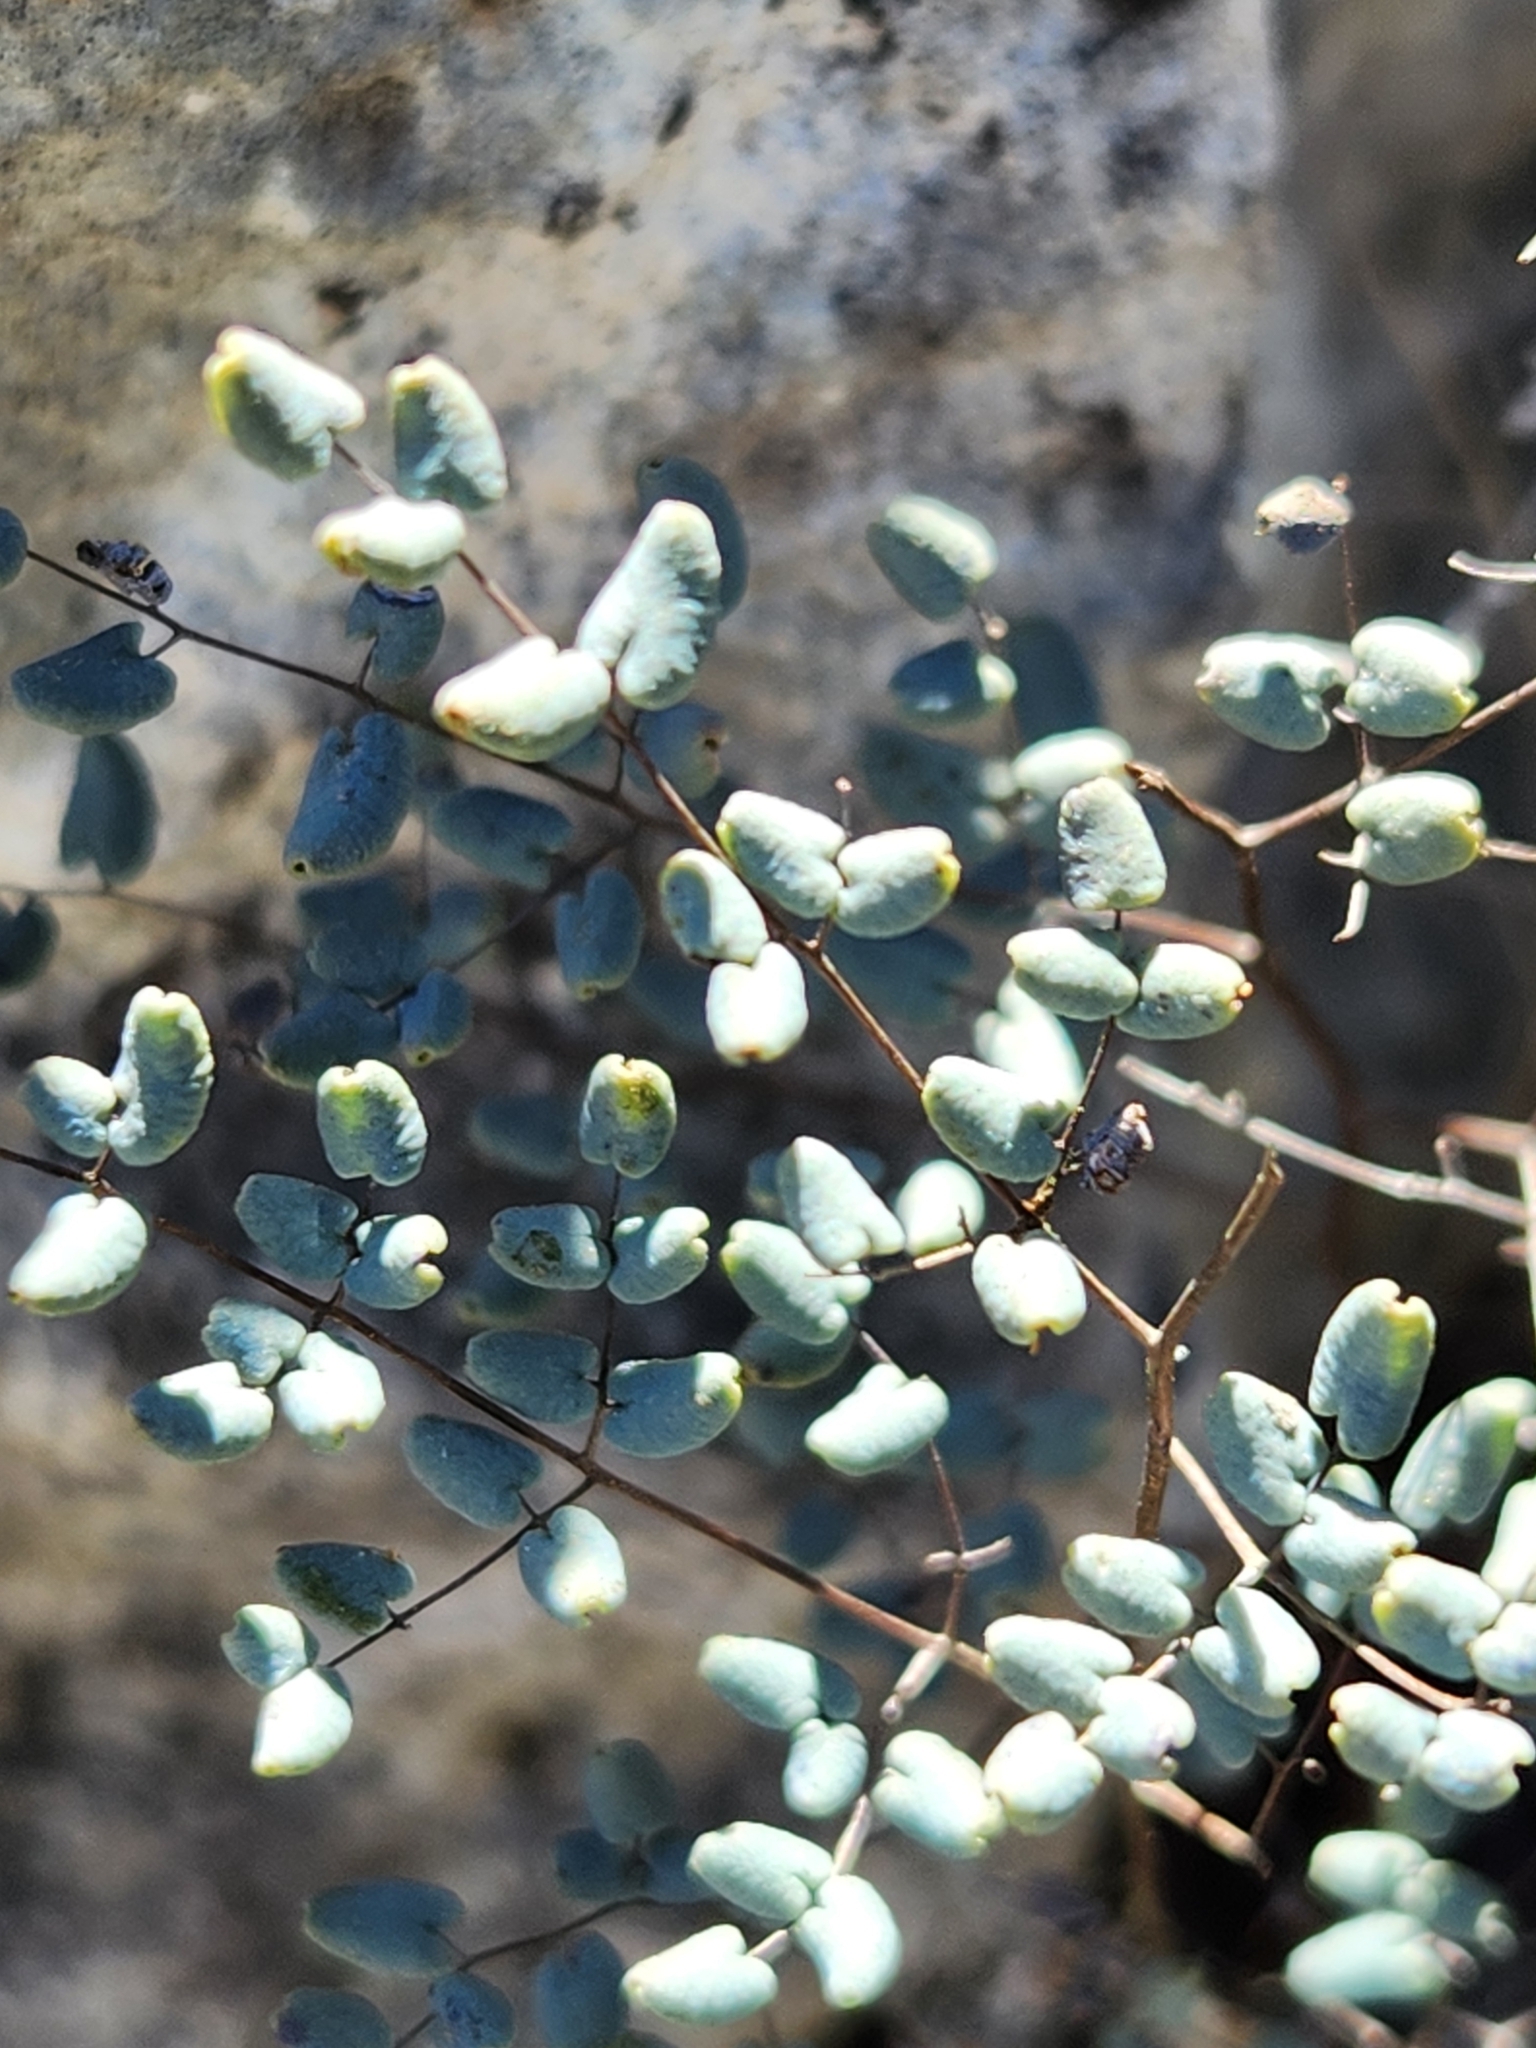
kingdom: Plantae
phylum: Tracheophyta
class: Polypodiopsida
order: Polypodiales
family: Pteridaceae
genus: Argyrochosma
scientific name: Argyrochosma microphylla
